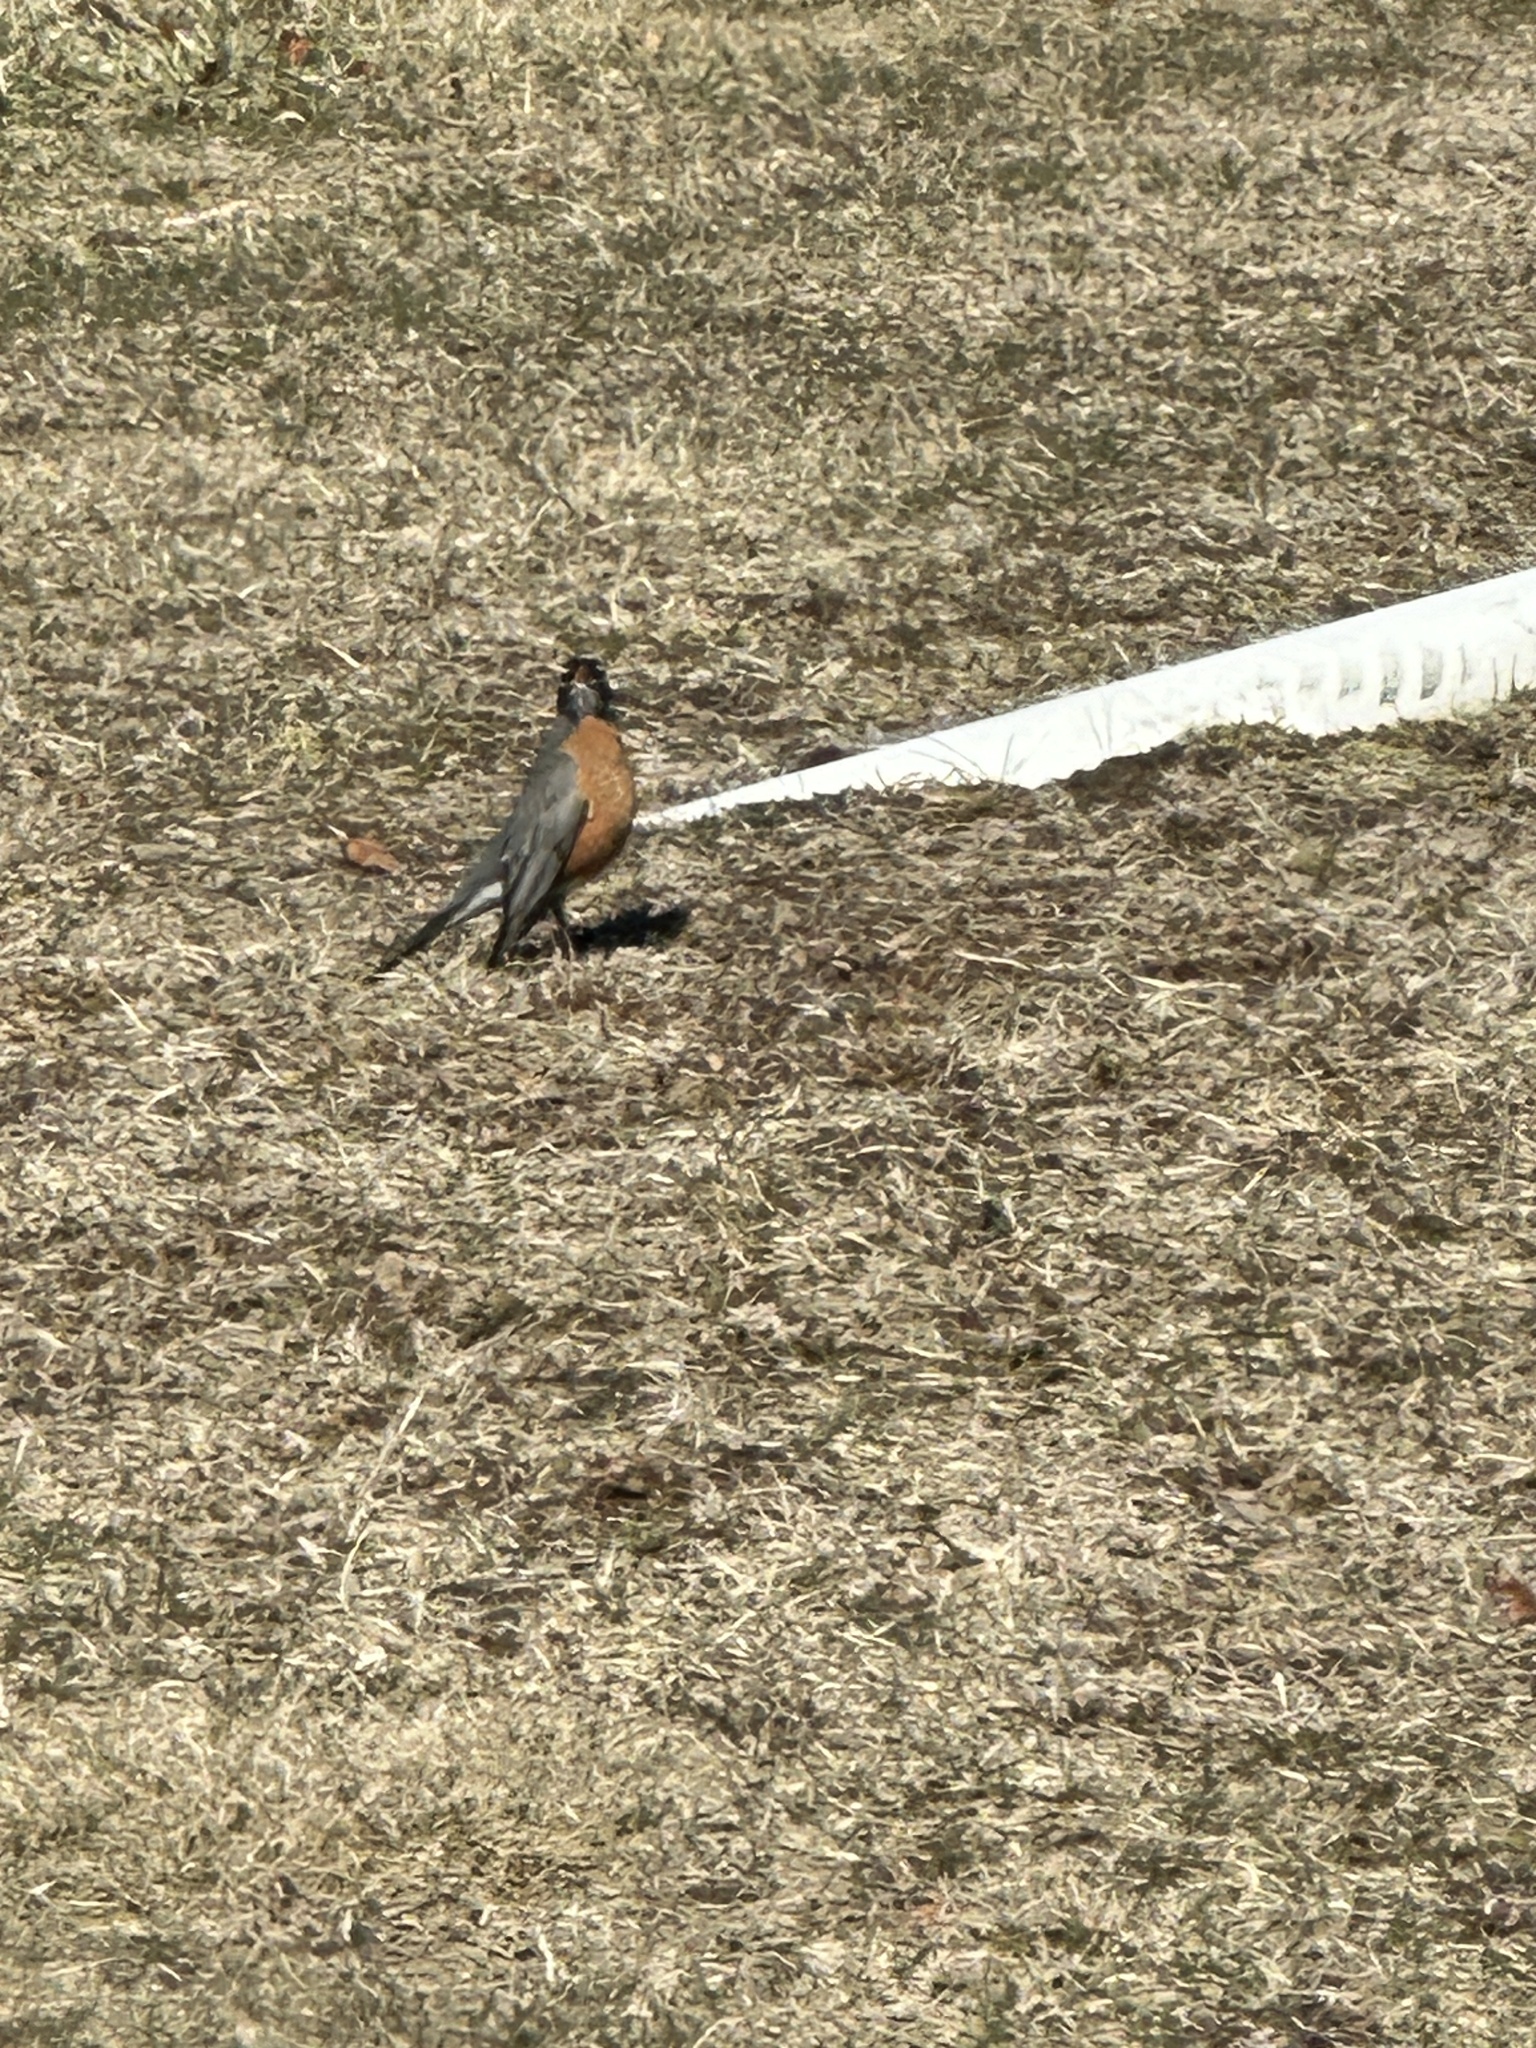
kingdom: Animalia
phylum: Chordata
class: Aves
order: Passeriformes
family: Turdidae
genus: Turdus
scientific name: Turdus migratorius
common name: American robin
